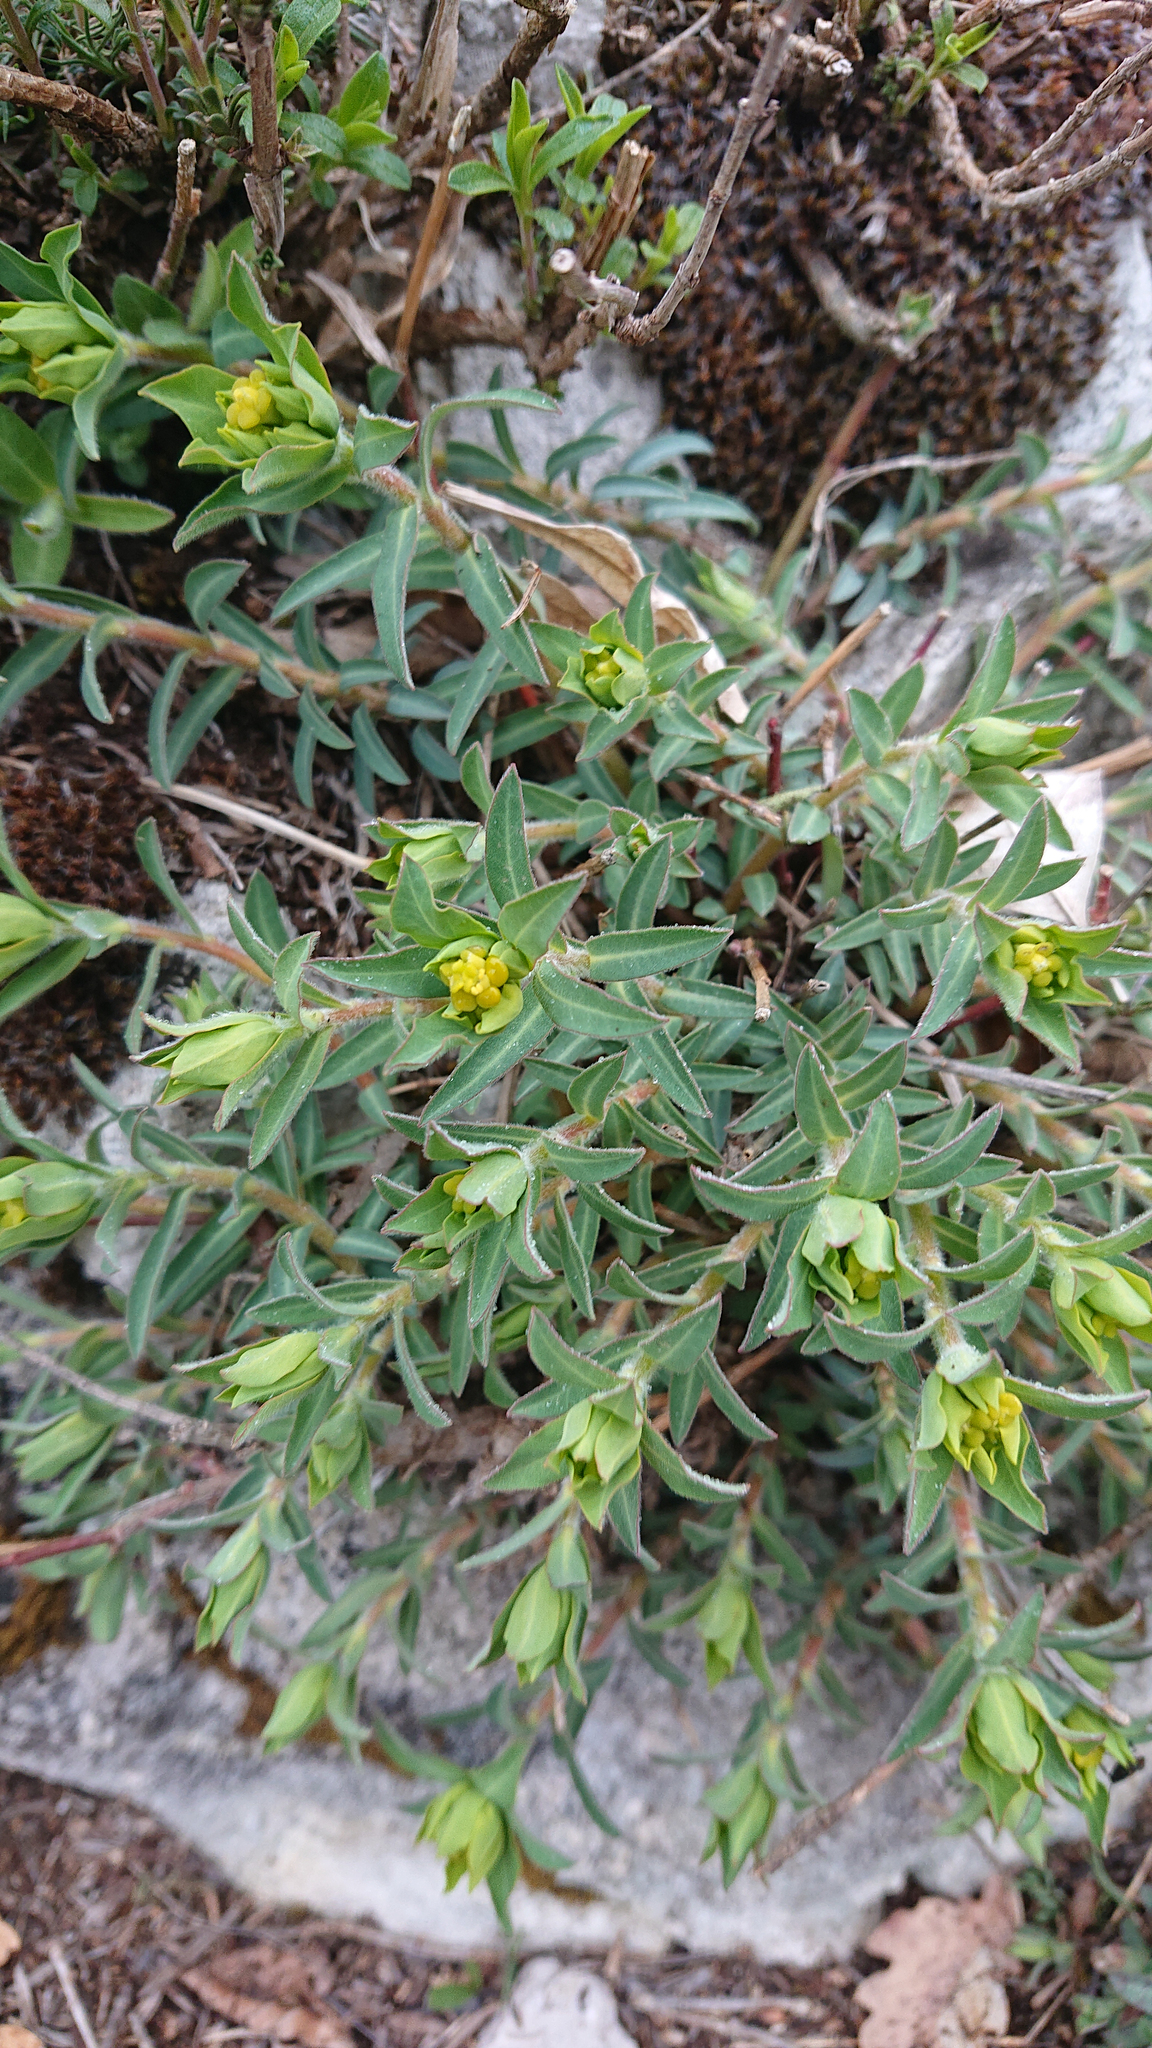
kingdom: Plantae
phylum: Tracheophyta
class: Magnoliopsida
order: Malpighiales
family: Euphorbiaceae
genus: Euphorbia
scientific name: Euphorbia fragifera
